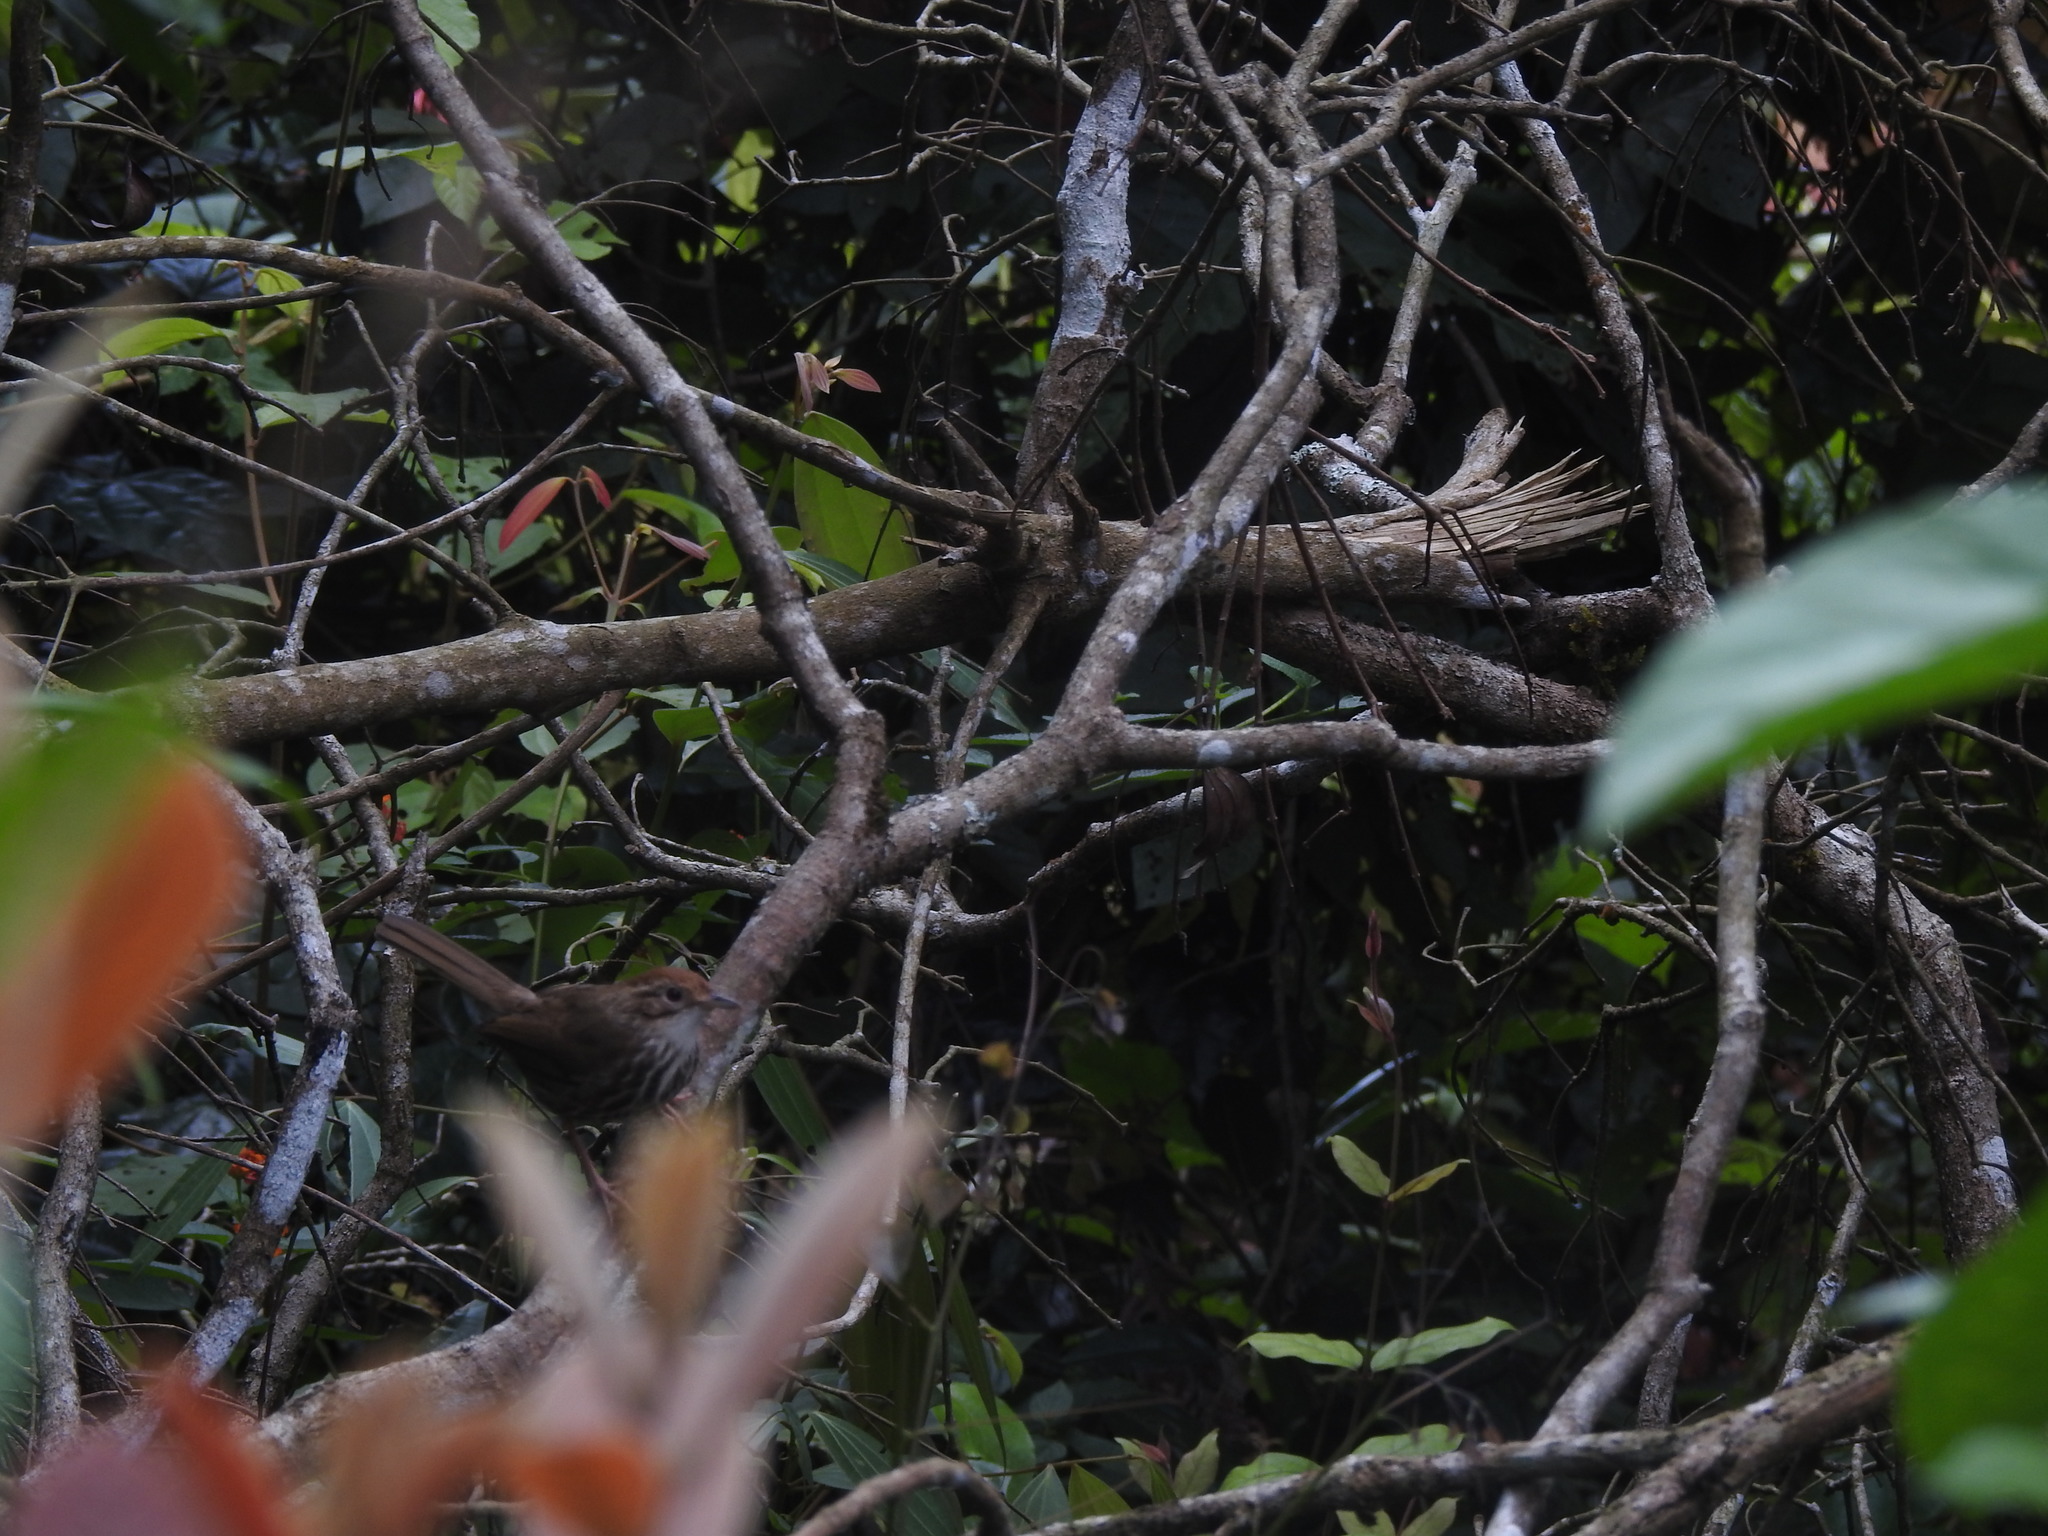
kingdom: Animalia
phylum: Chordata
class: Aves
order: Passeriformes
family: Pellorneidae
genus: Pellorneum
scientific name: Pellorneum ruficeps
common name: Puff-throated babbler
